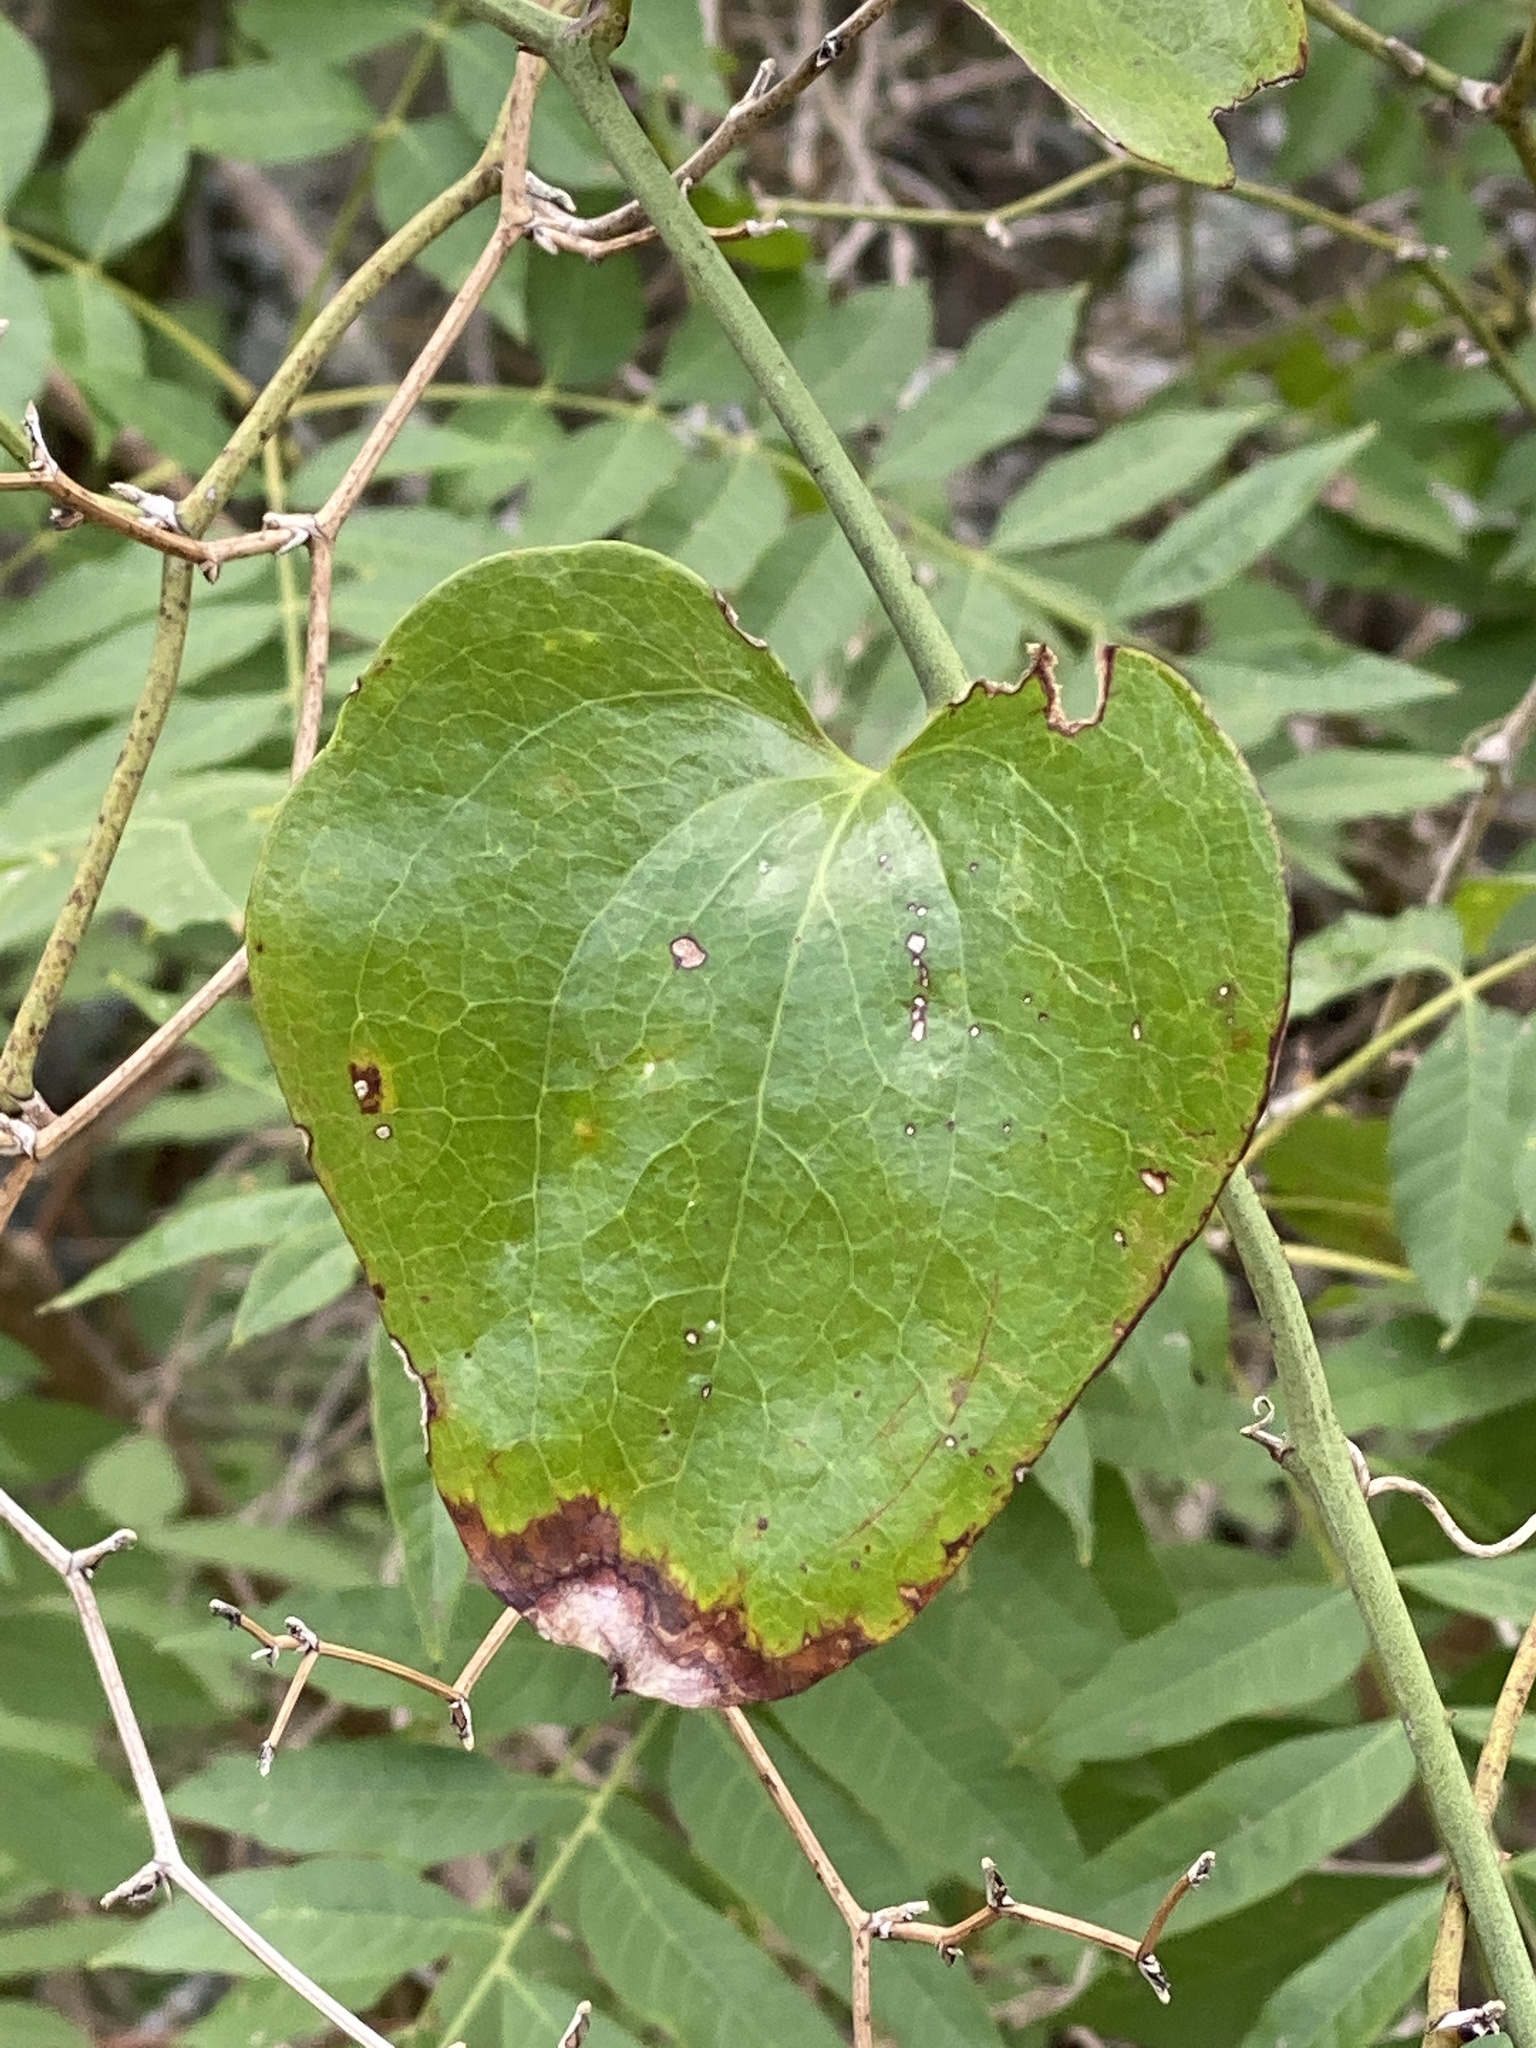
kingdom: Plantae
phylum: Tracheophyta
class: Liliopsida
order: Liliales
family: Smilacaceae
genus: Smilax
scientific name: Smilax rotundifolia
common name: Bullbriar
